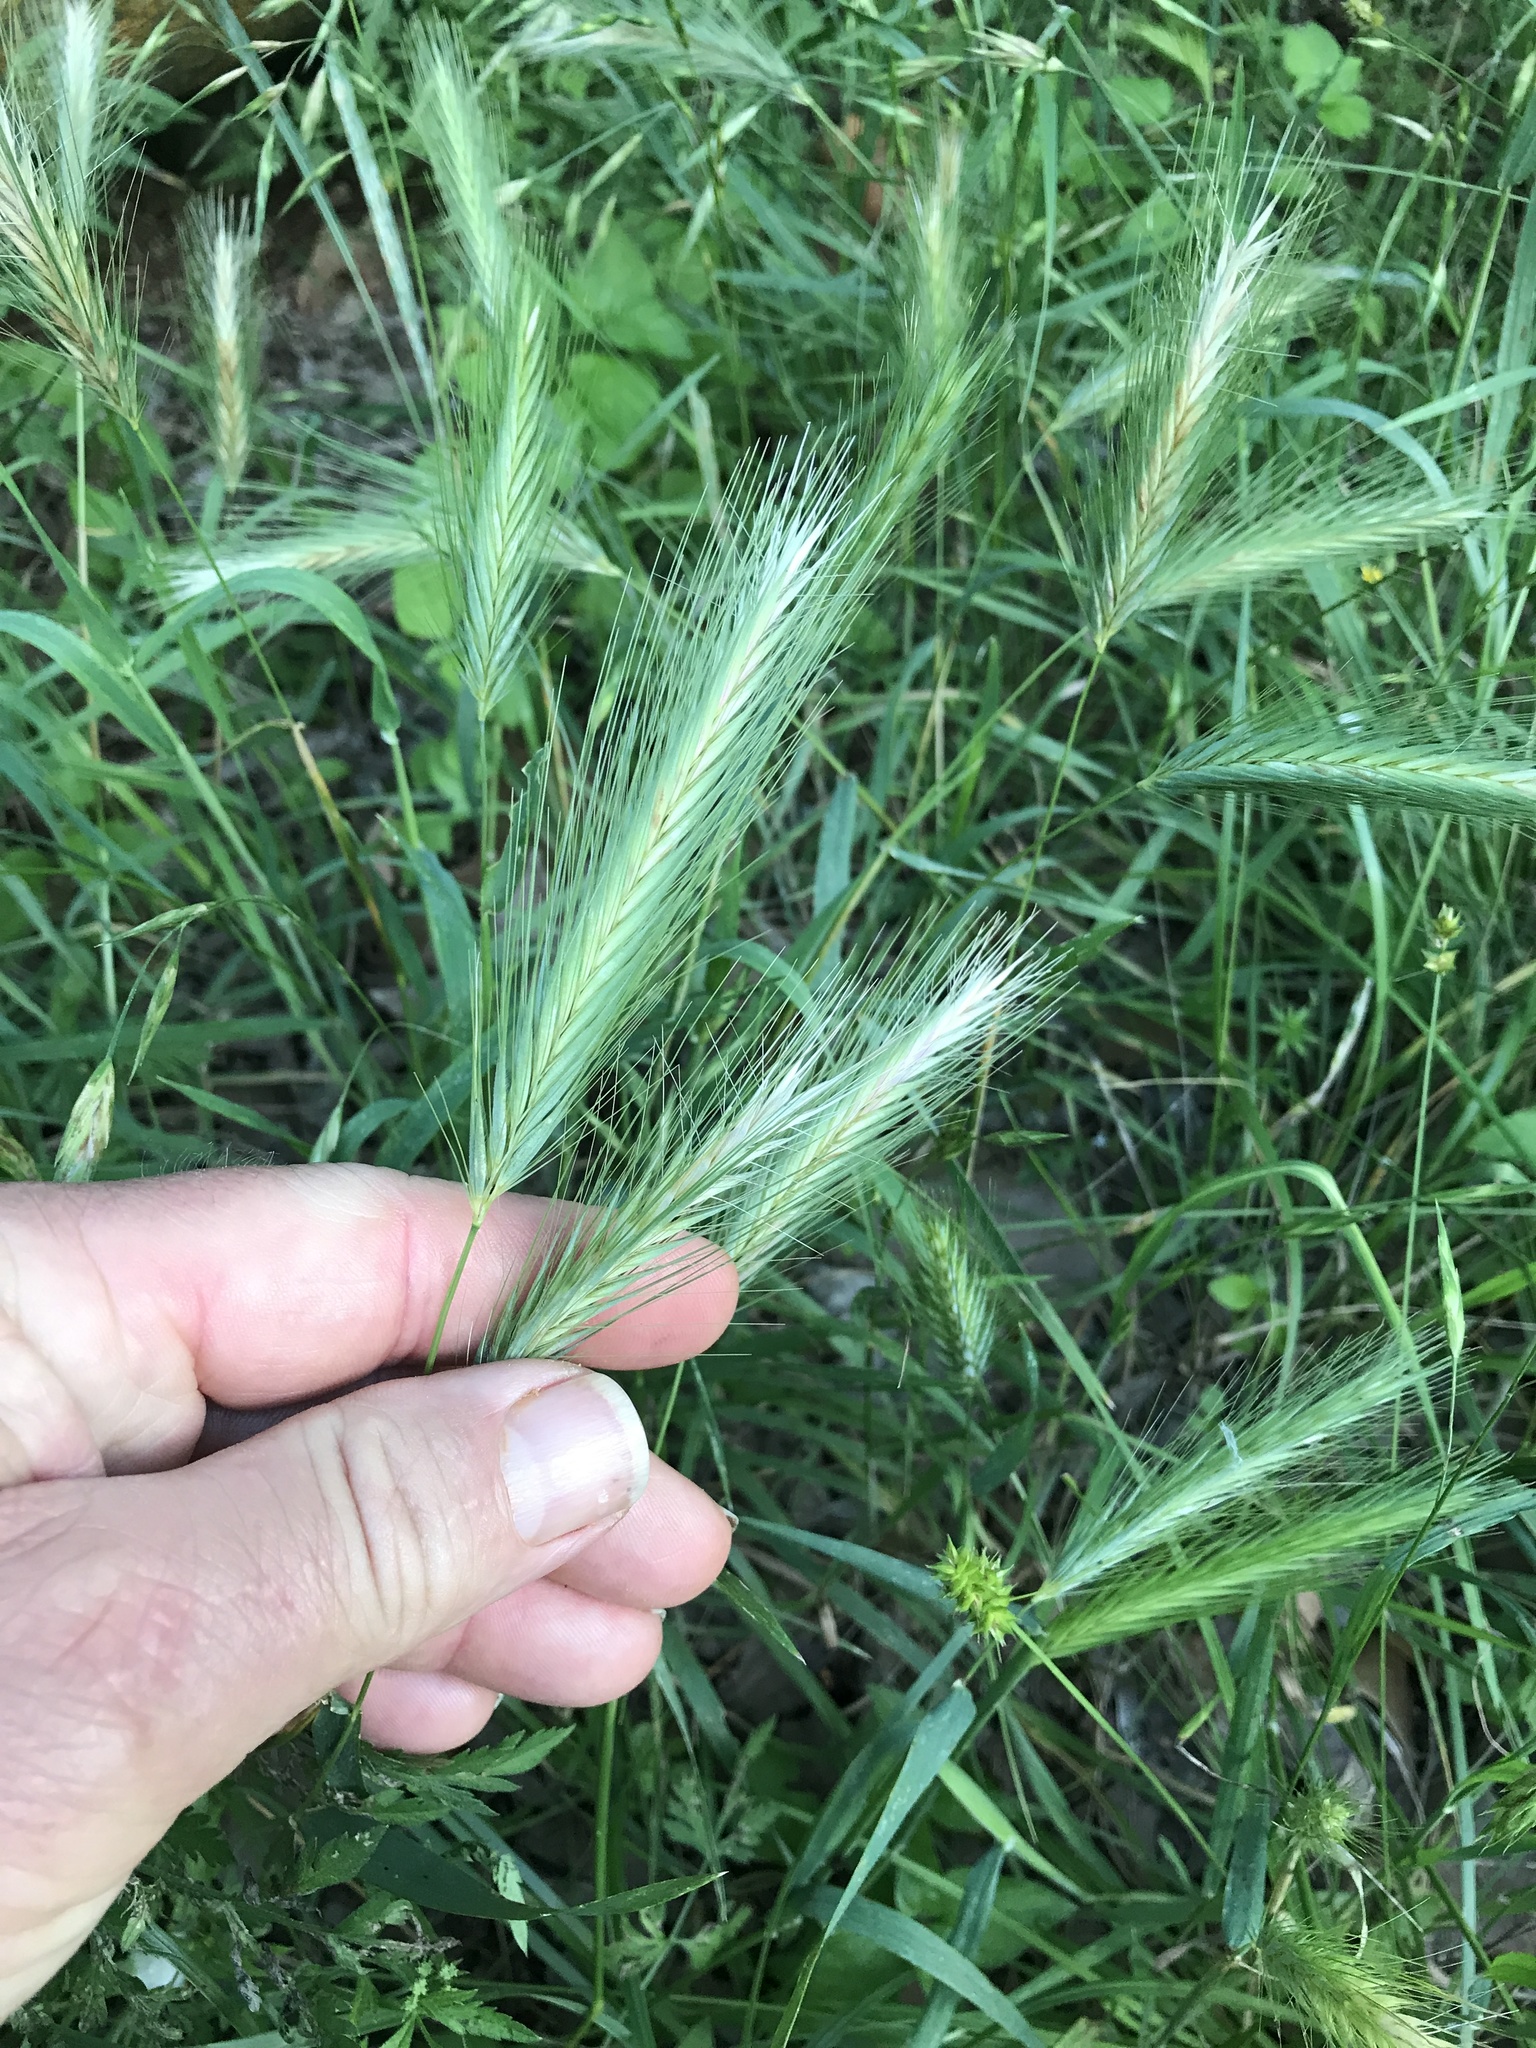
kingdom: Plantae
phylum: Tracheophyta
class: Liliopsida
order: Poales
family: Poaceae
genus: Hordeum
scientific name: Hordeum murinum
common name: Wall barley
